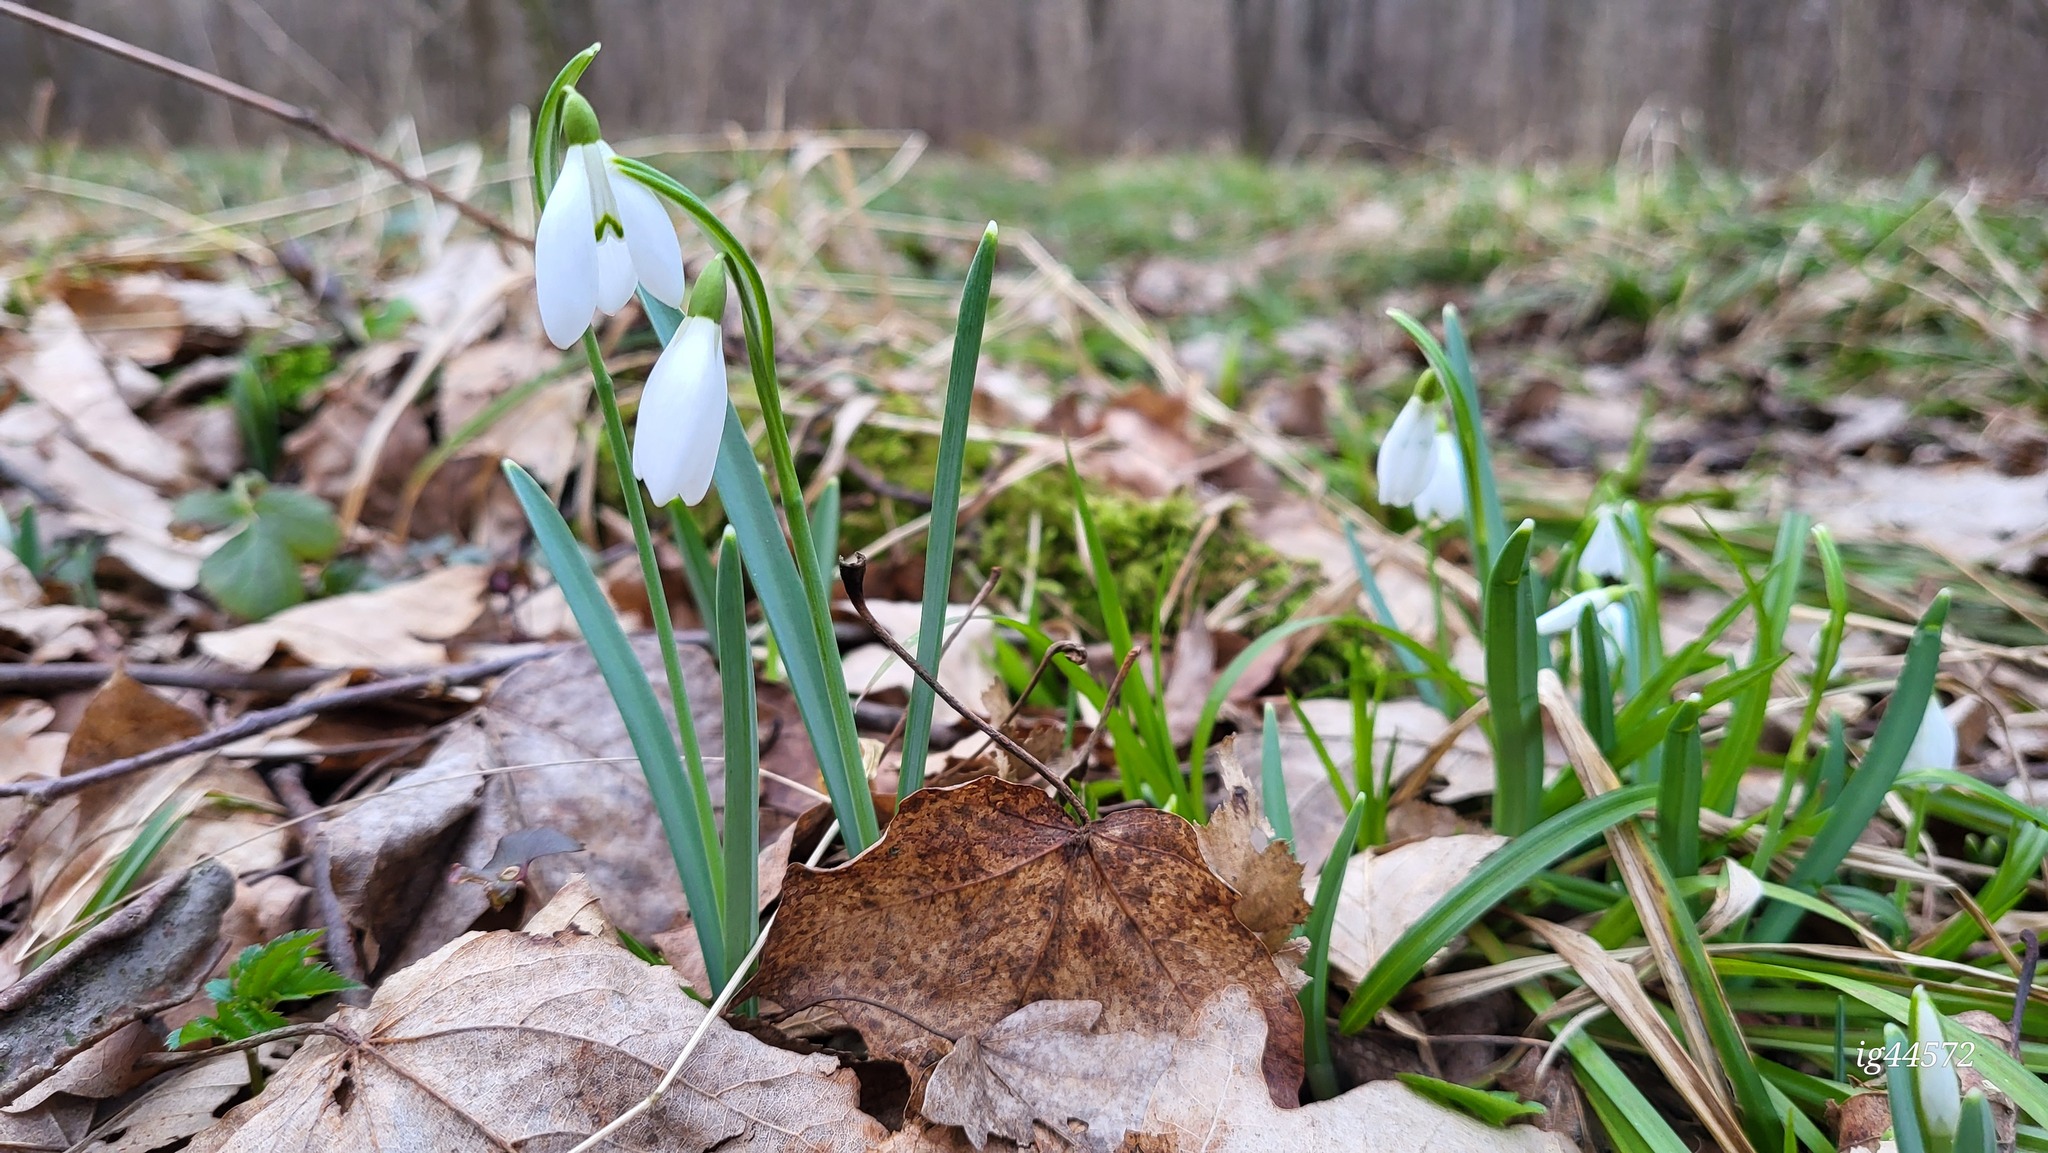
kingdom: Plantae
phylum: Tracheophyta
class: Liliopsida
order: Asparagales
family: Amaryllidaceae
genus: Galanthus
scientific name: Galanthus nivalis
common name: Snowdrop
